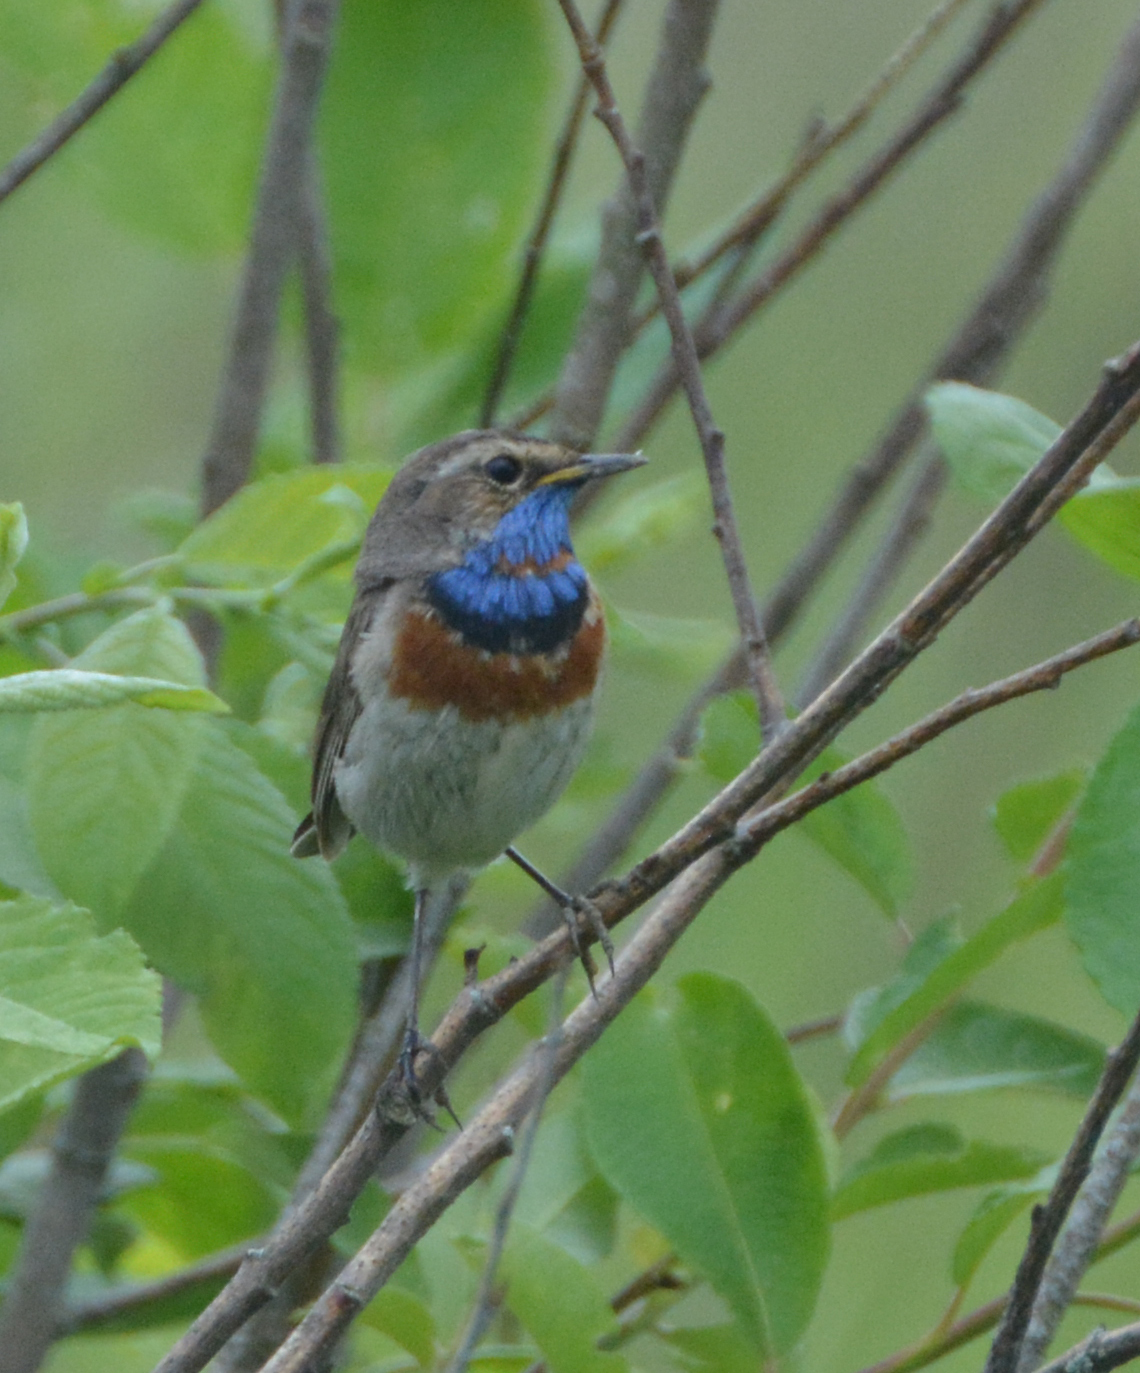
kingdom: Animalia
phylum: Chordata
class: Aves
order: Passeriformes
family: Muscicapidae
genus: Luscinia
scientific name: Luscinia svecica
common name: Bluethroat
